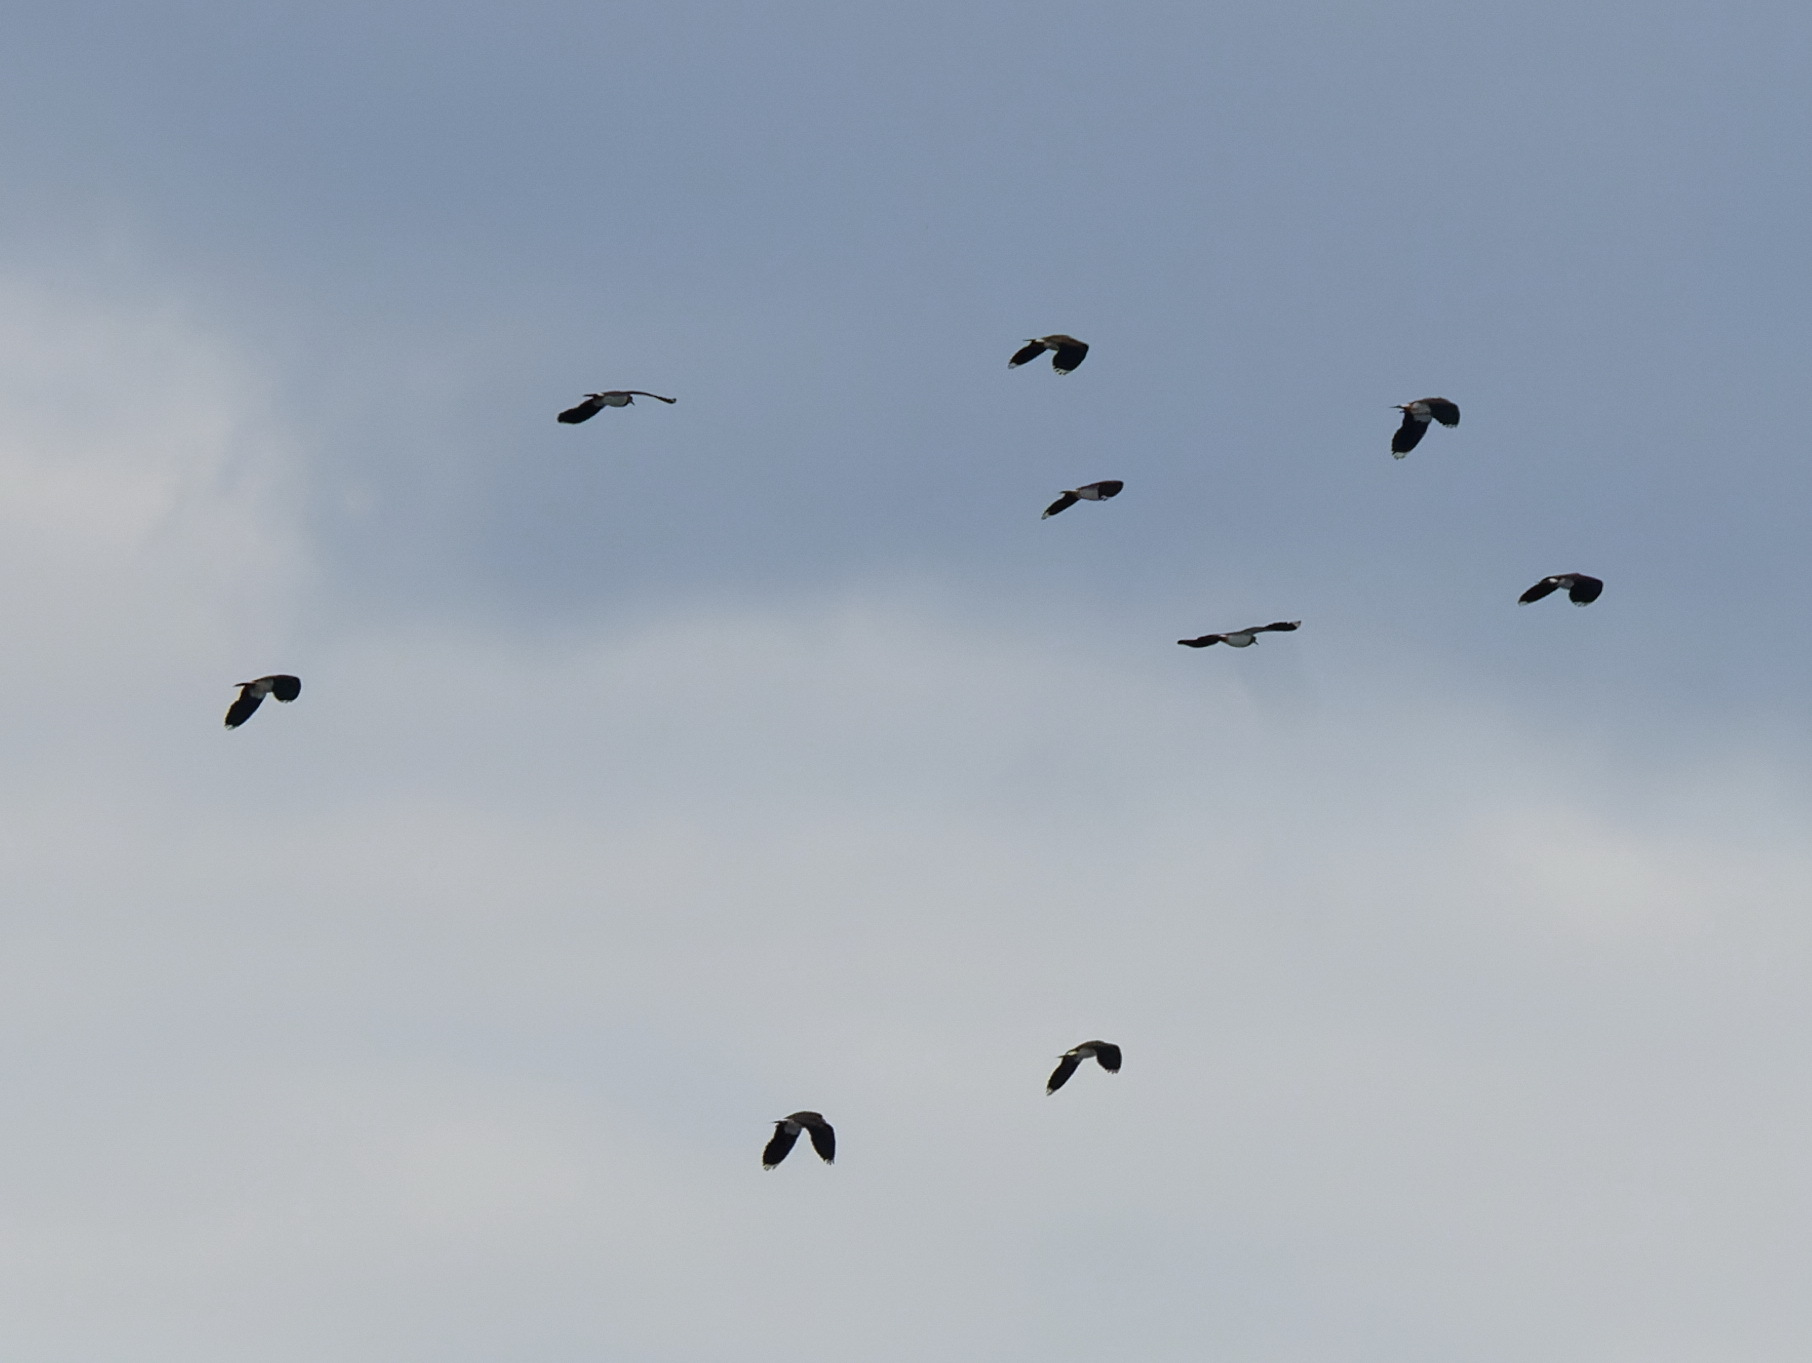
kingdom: Animalia
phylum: Chordata
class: Aves
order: Charadriiformes
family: Charadriidae
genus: Vanellus
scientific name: Vanellus vanellus
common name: Northern lapwing
